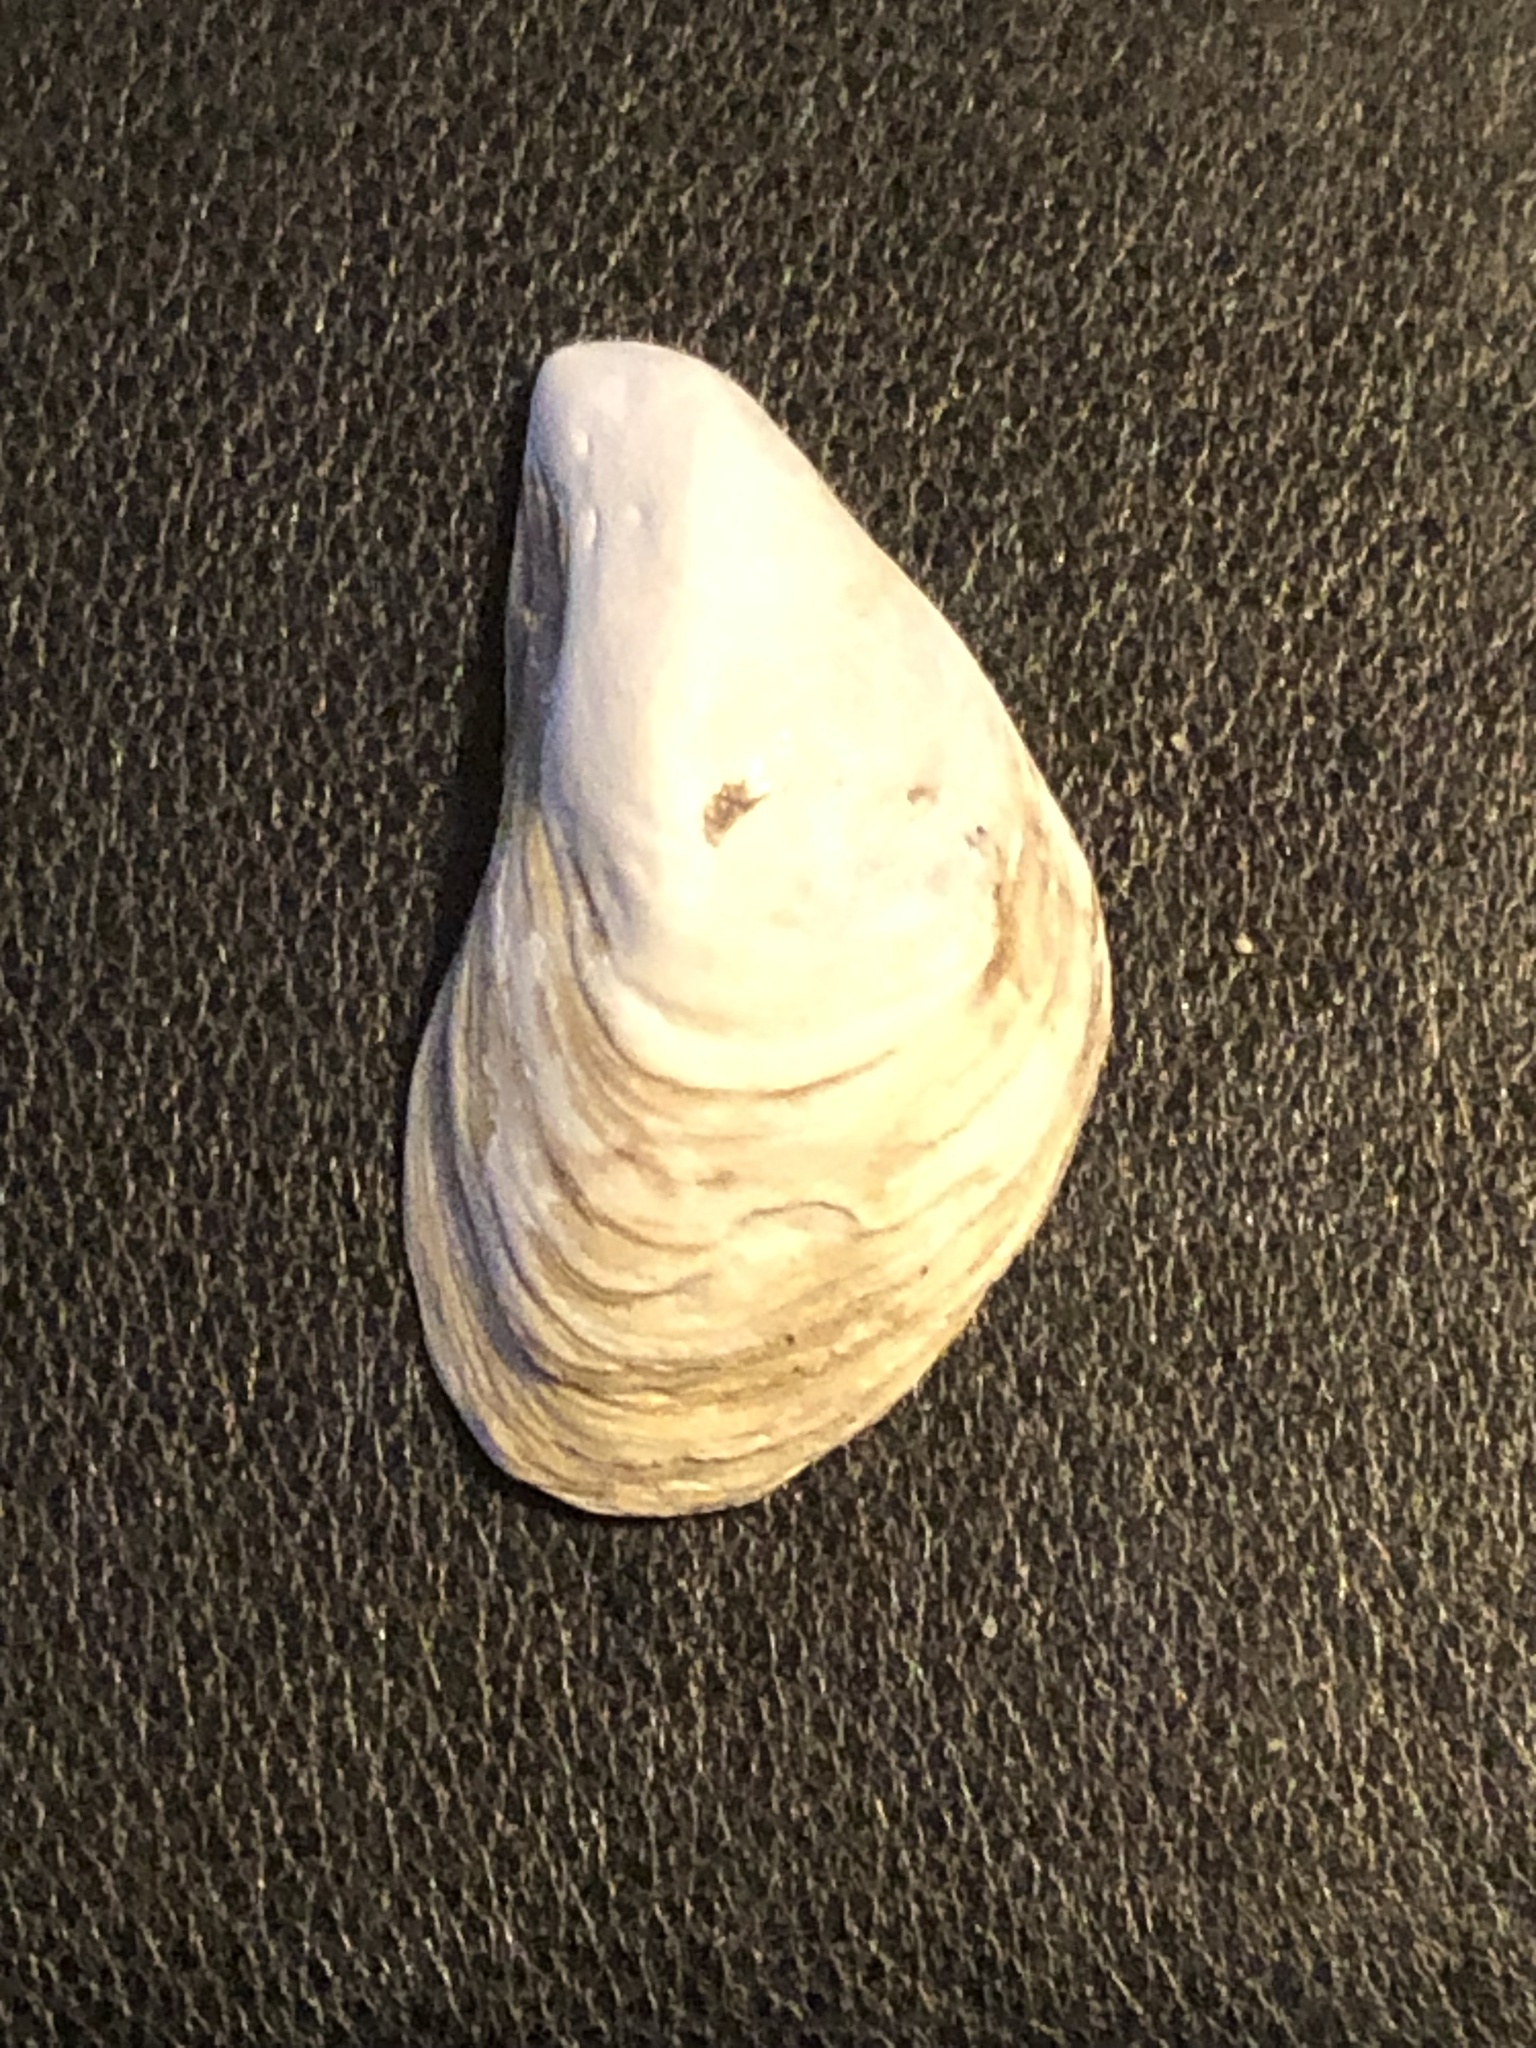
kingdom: Animalia
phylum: Mollusca
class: Bivalvia
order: Myida
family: Dreissenidae
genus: Dreissena
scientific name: Dreissena bugensis
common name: Quagga mussel
